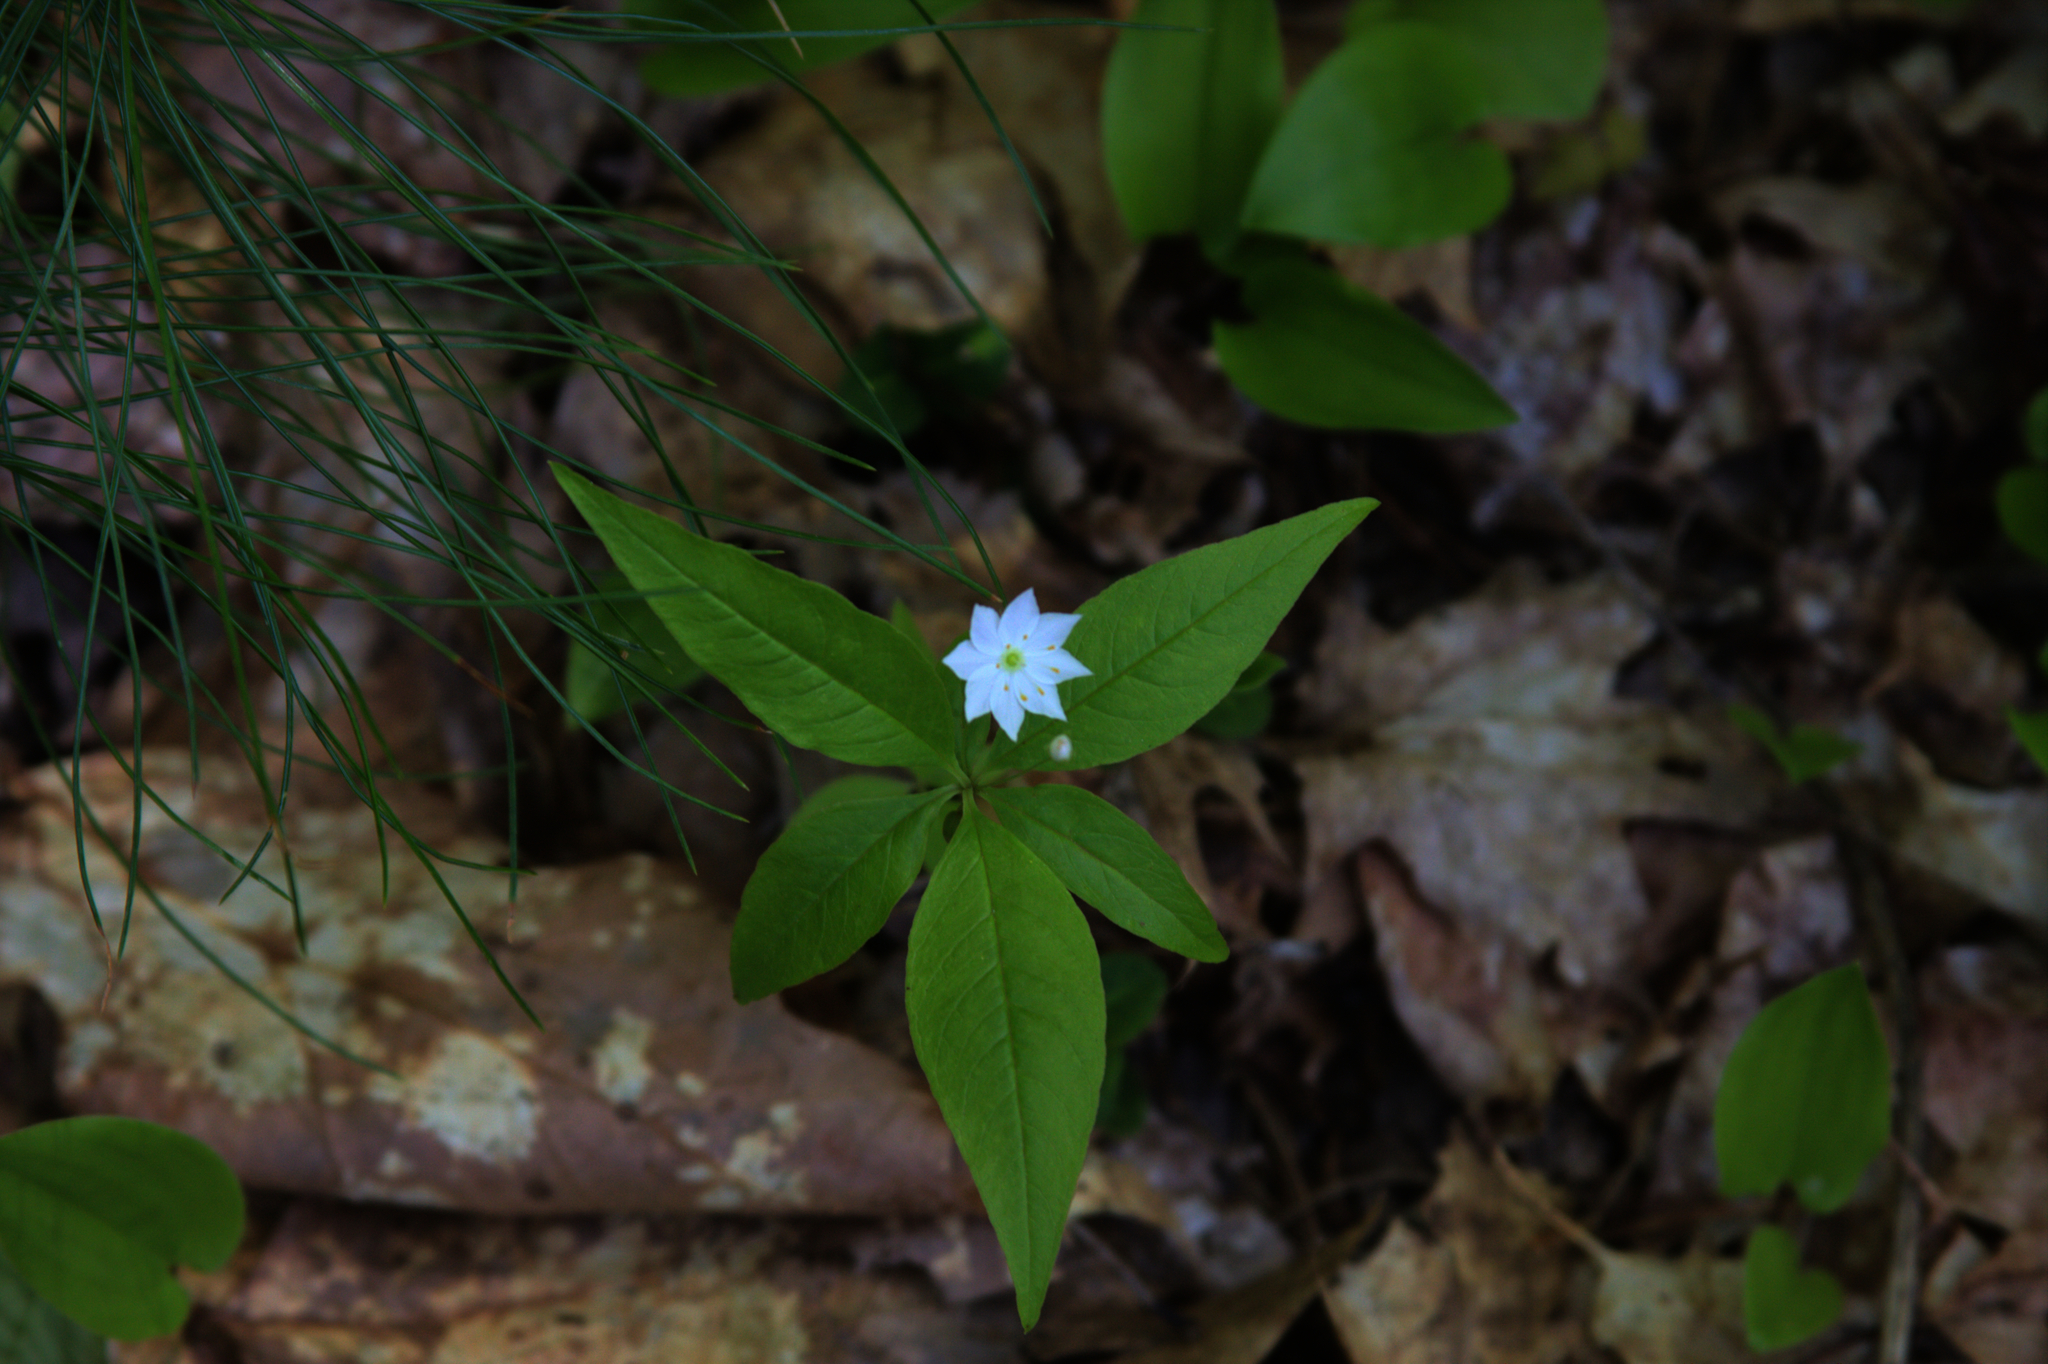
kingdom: Plantae
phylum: Tracheophyta
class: Magnoliopsida
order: Ericales
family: Primulaceae
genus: Lysimachia
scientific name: Lysimachia borealis
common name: American starflower
